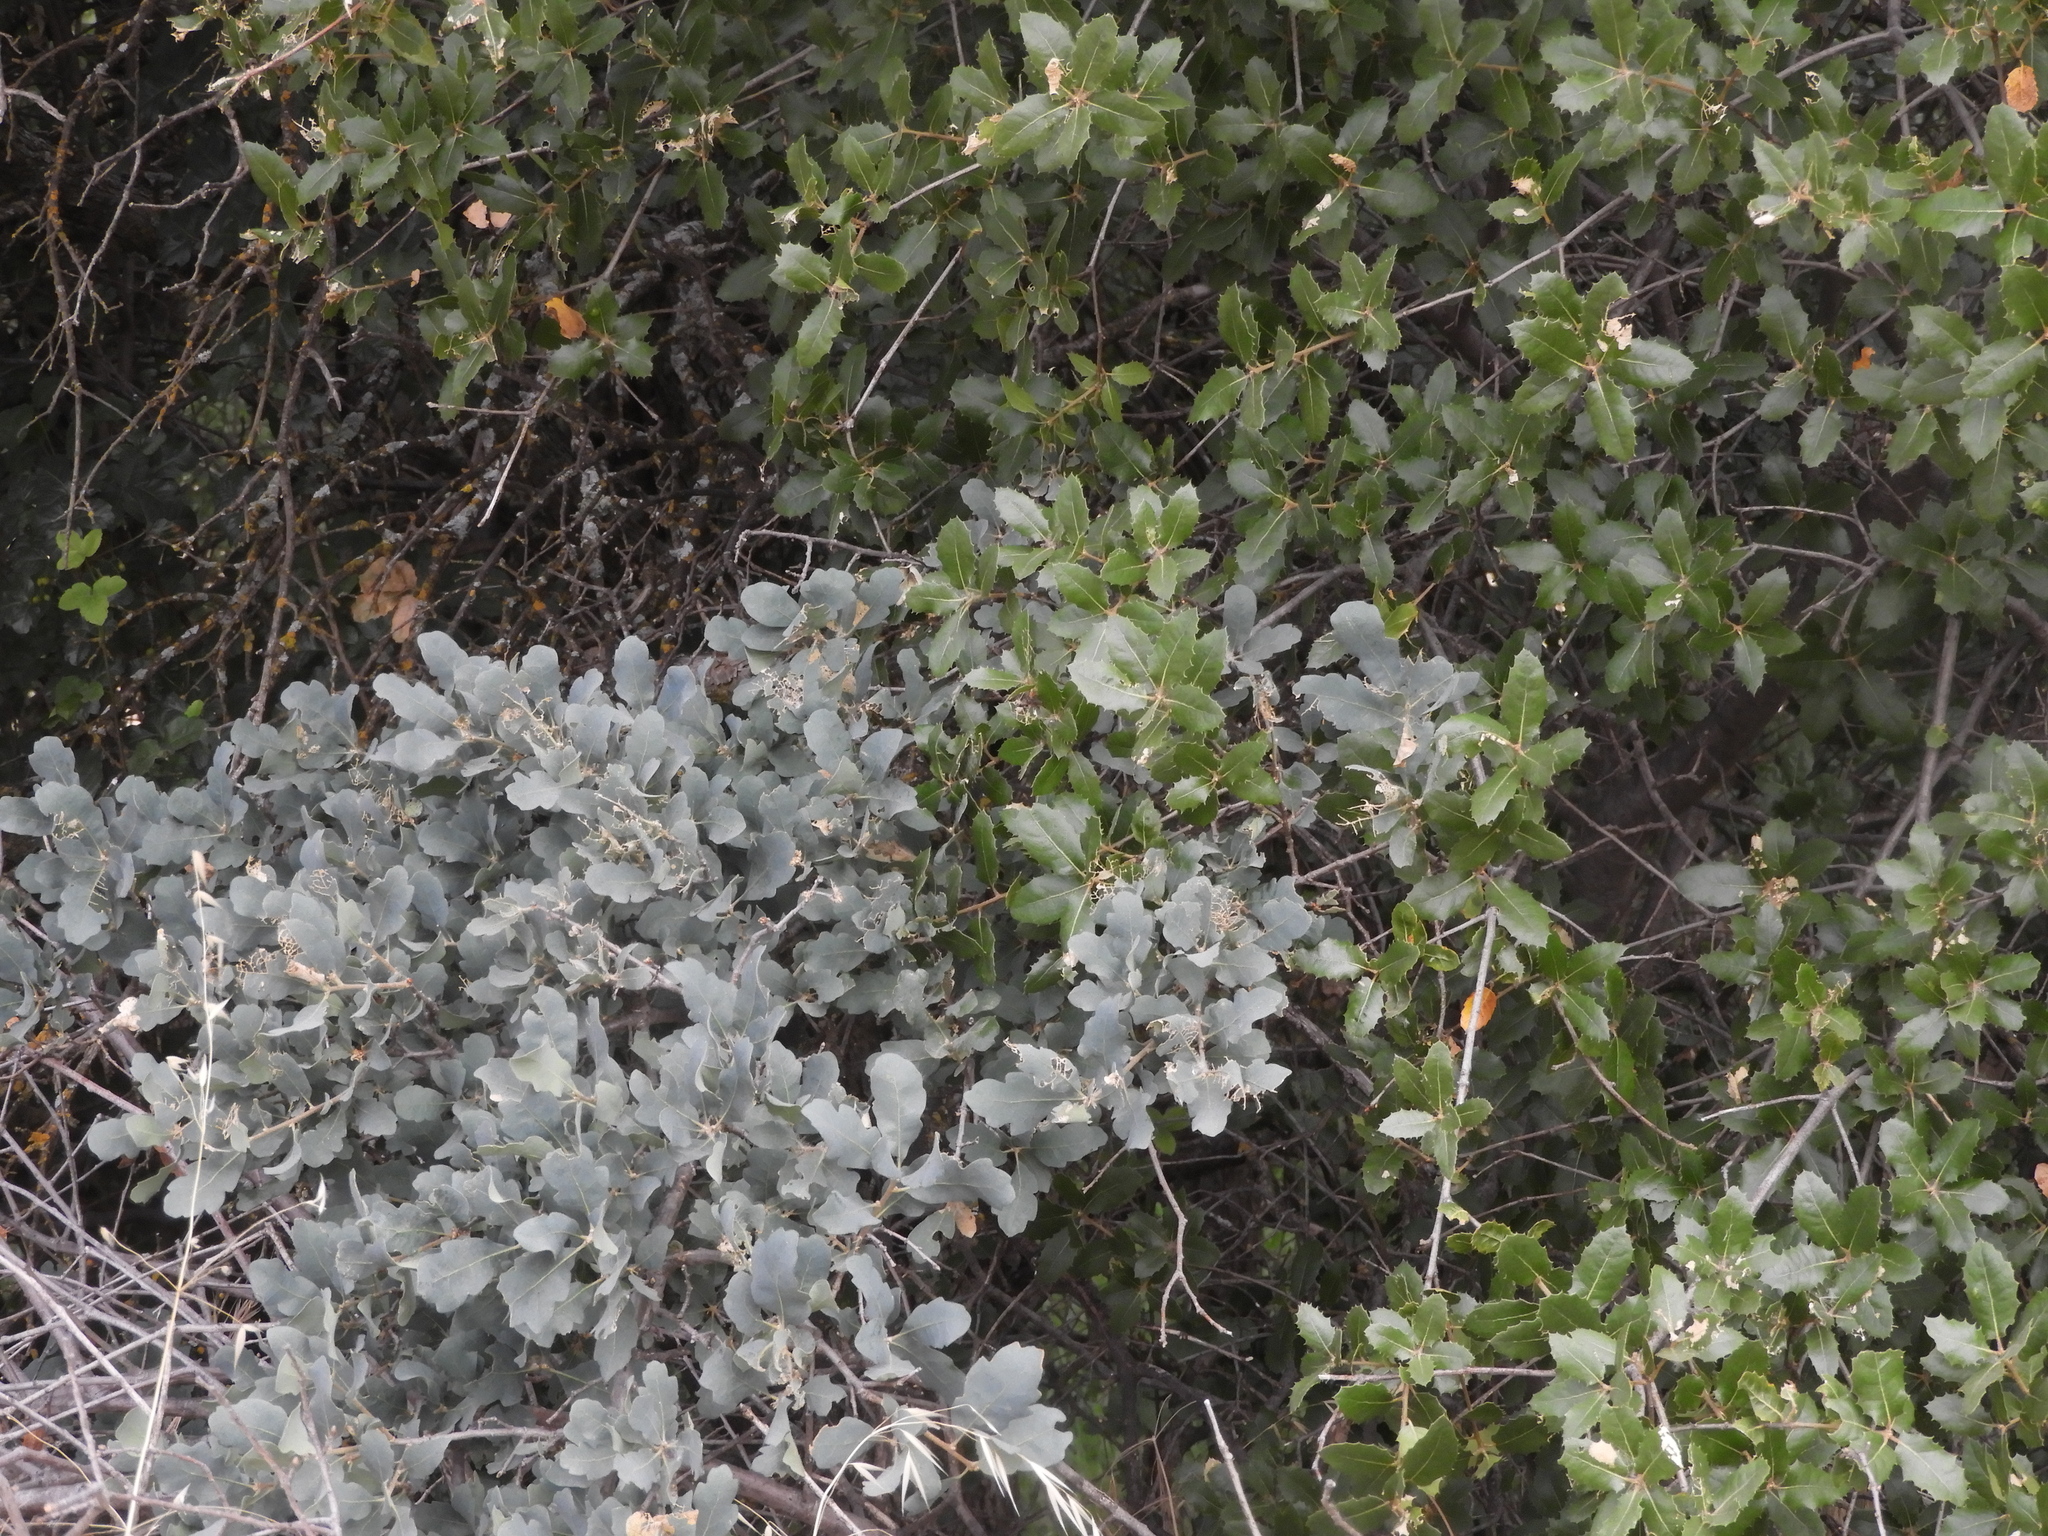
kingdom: Plantae
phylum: Tracheophyta
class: Magnoliopsida
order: Fagales
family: Fagaceae
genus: Quercus
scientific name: Quercus wislizeni
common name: Interior live oak
